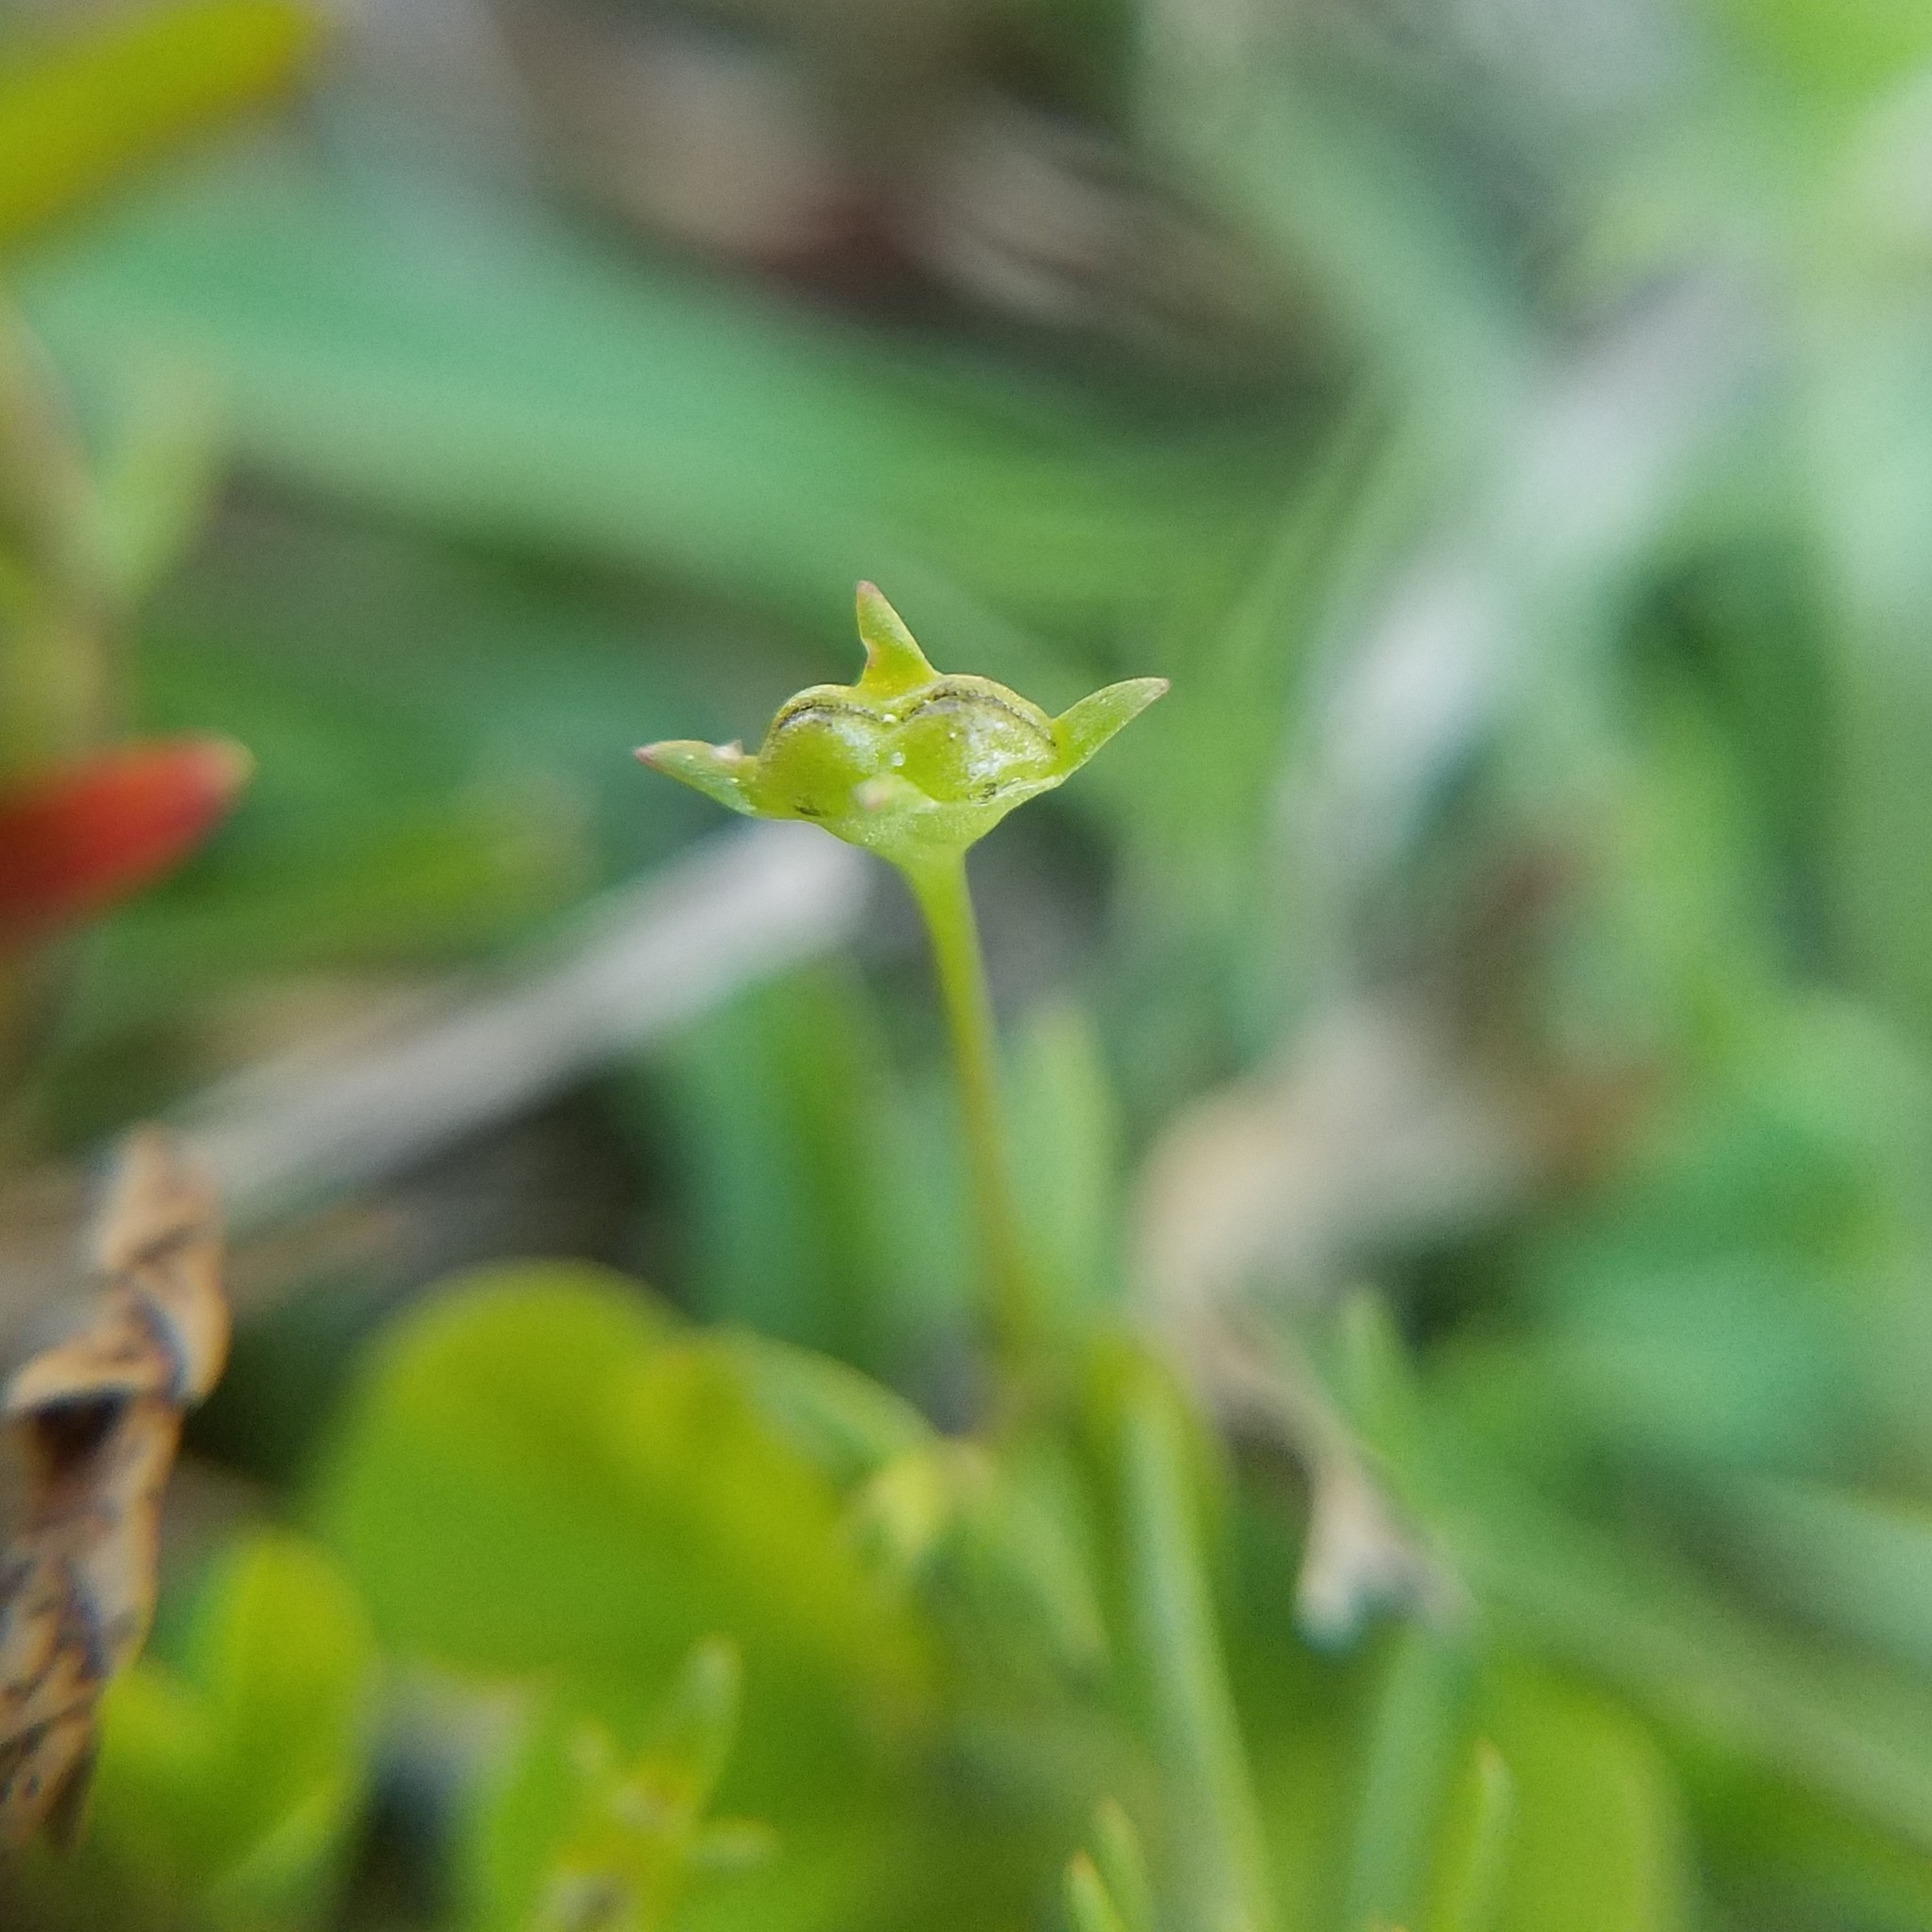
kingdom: Plantae
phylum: Tracheophyta
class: Magnoliopsida
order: Gentianales
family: Rubiaceae
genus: Houstonia
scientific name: Houstonia micrantha
